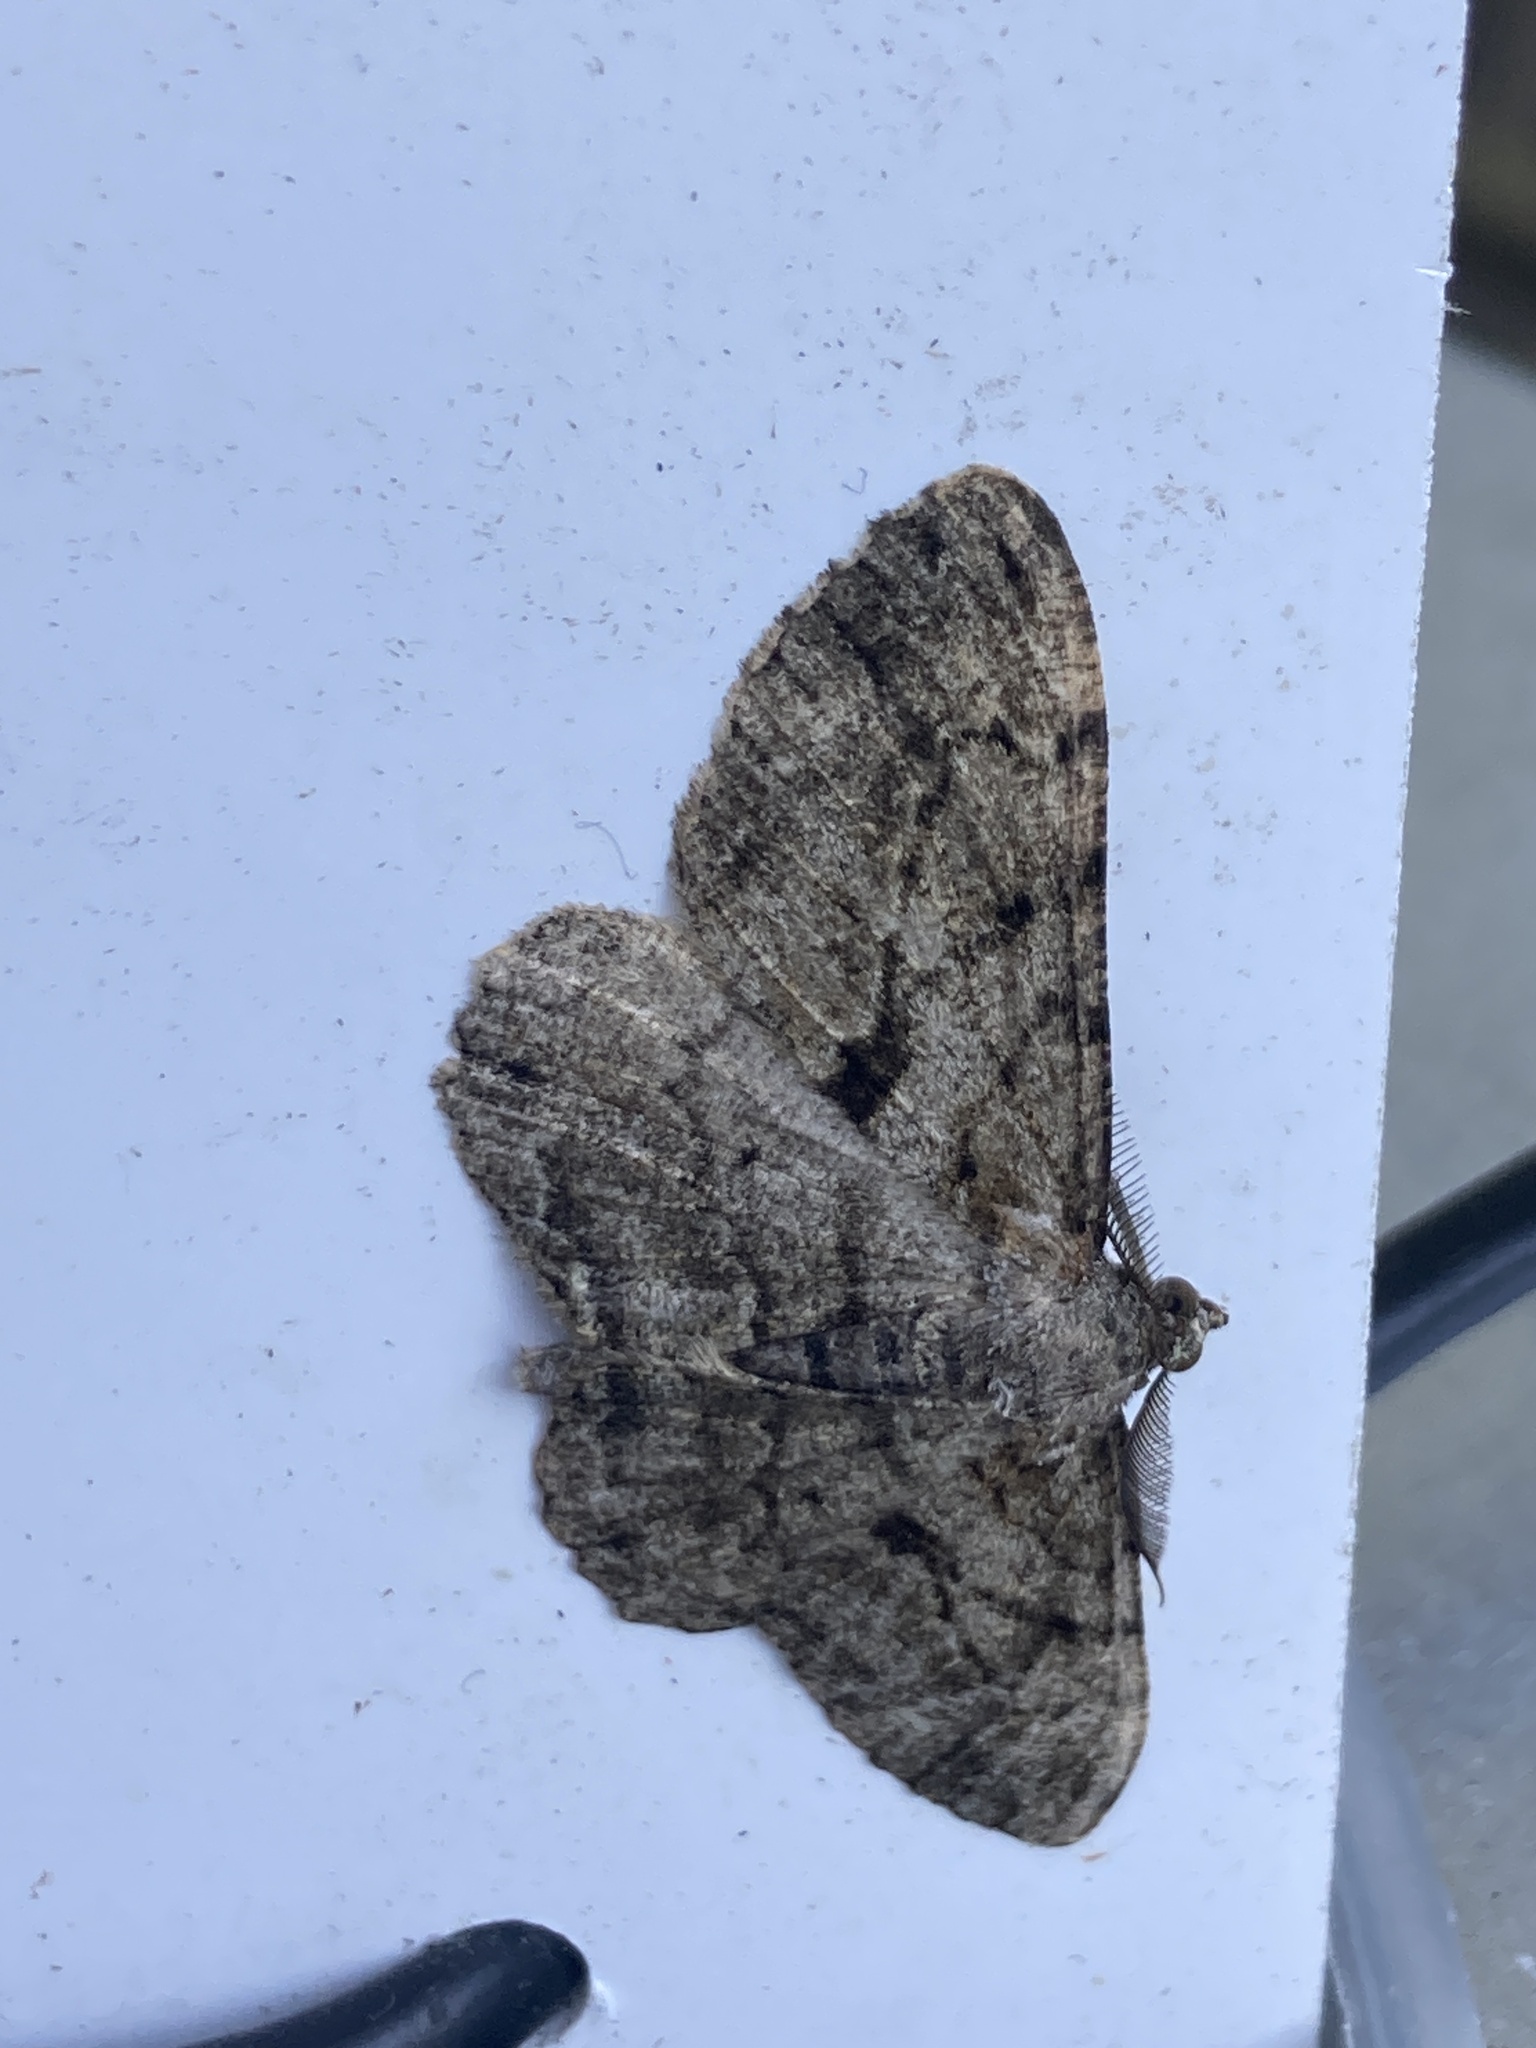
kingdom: Animalia
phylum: Arthropoda
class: Insecta
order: Lepidoptera
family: Geometridae
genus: Peribatodes
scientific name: Peribatodes rhomboidaria
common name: Willow beauty
